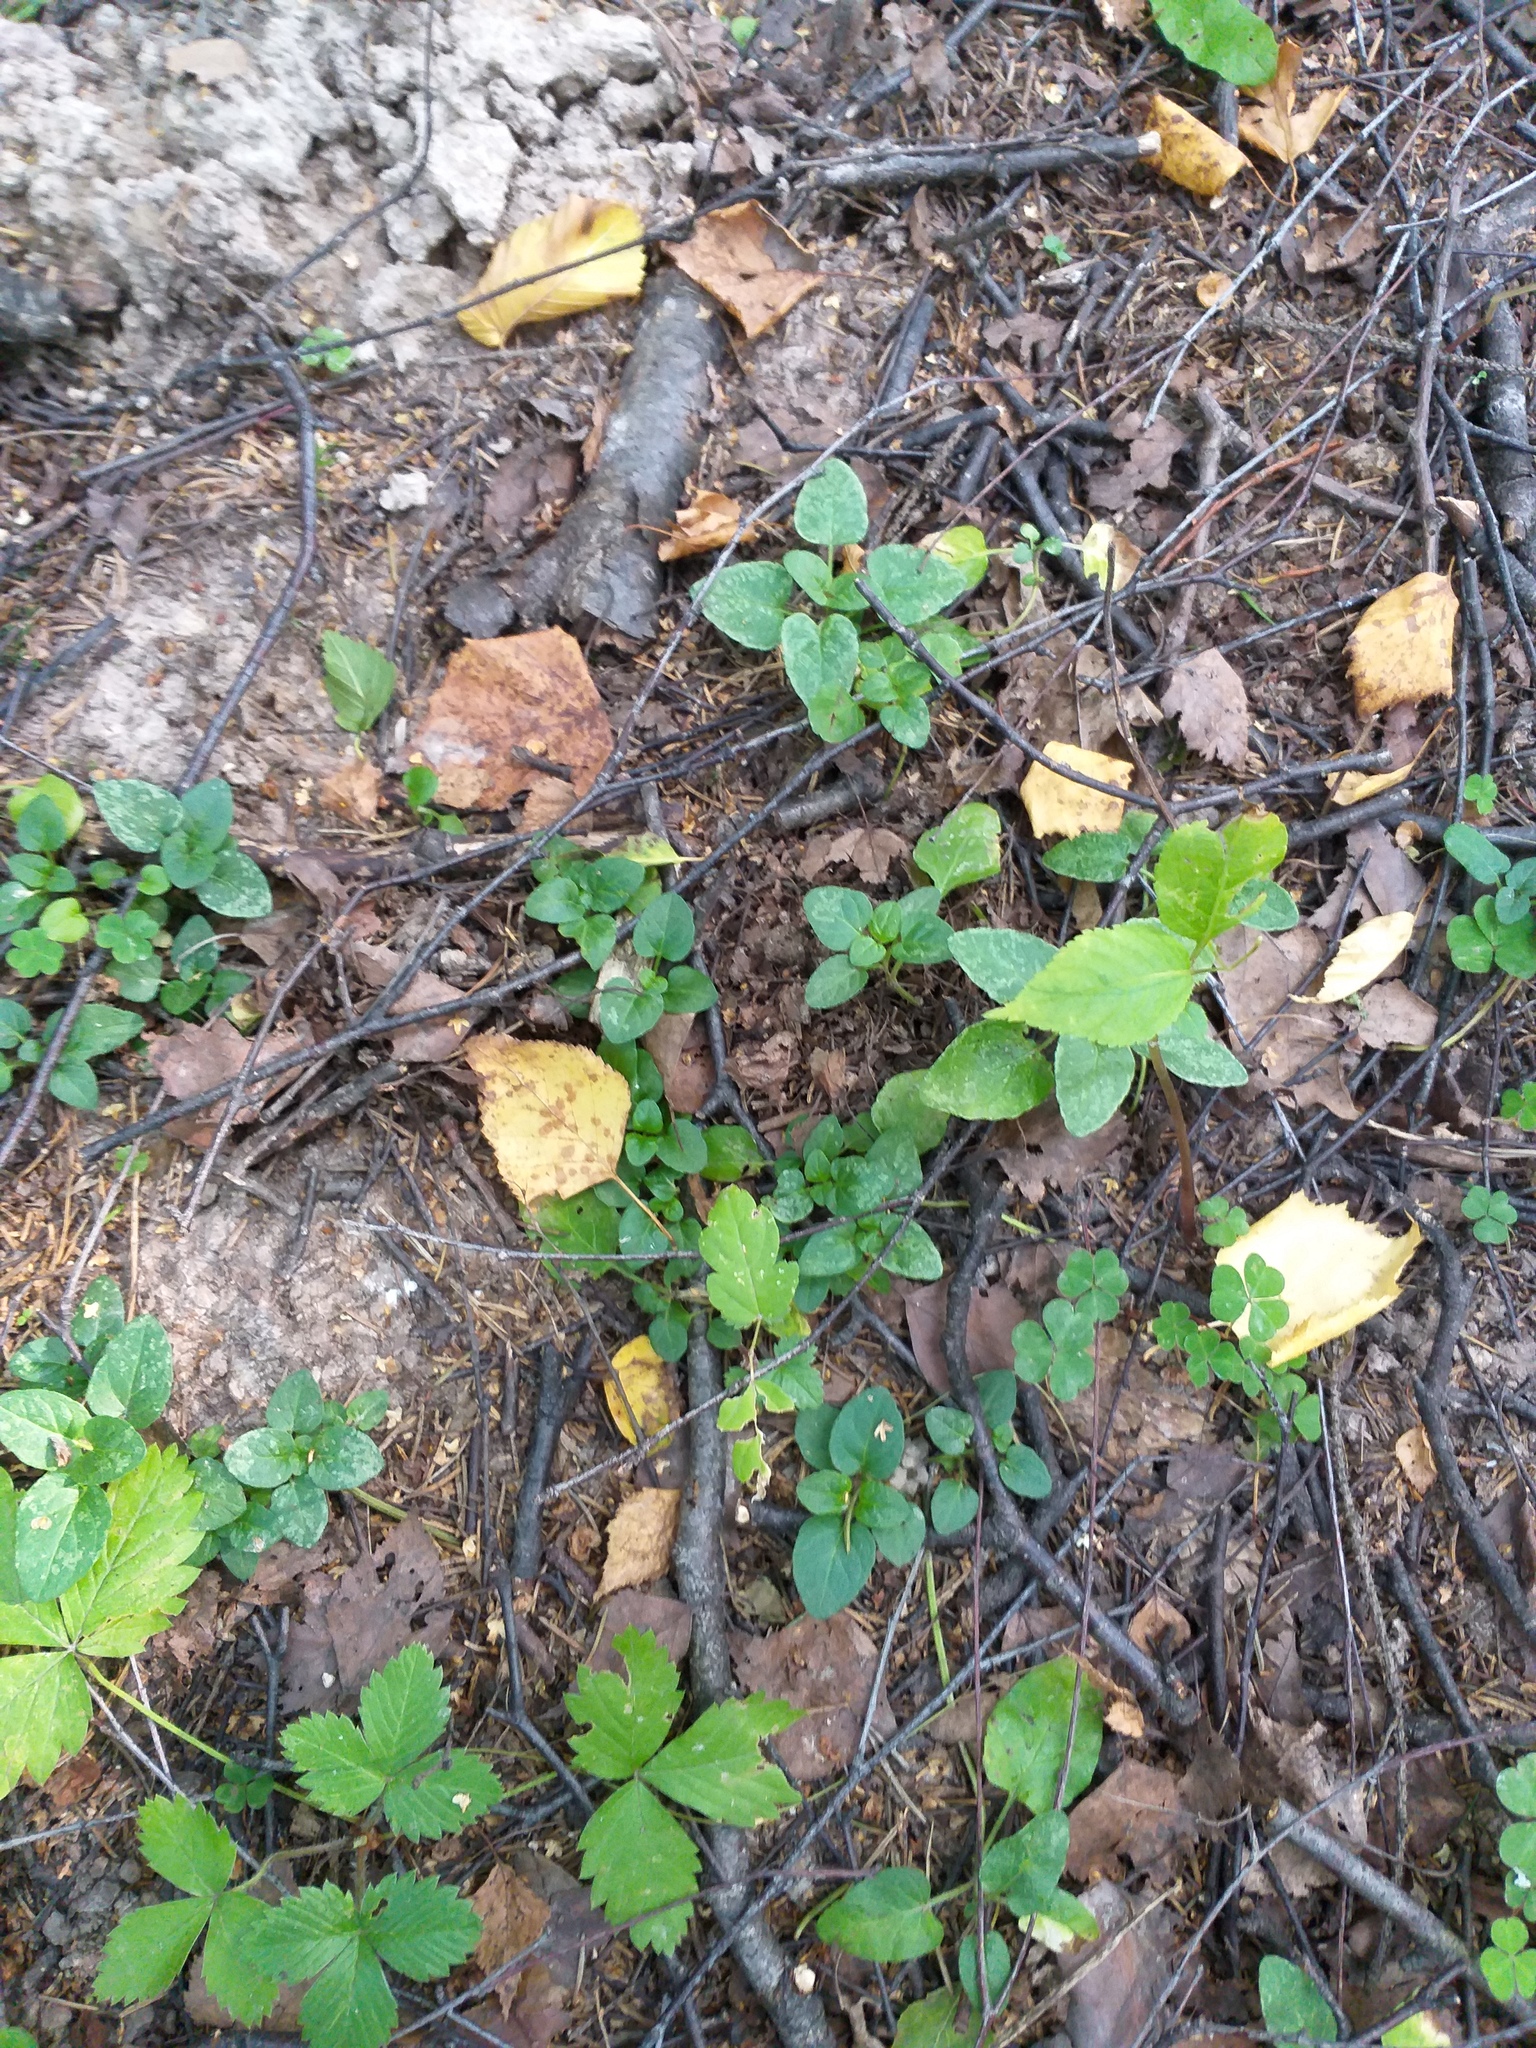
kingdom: Plantae
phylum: Tracheophyta
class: Magnoliopsida
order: Lamiales
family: Lamiaceae
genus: Prunella
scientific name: Prunella vulgaris
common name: Heal-all
